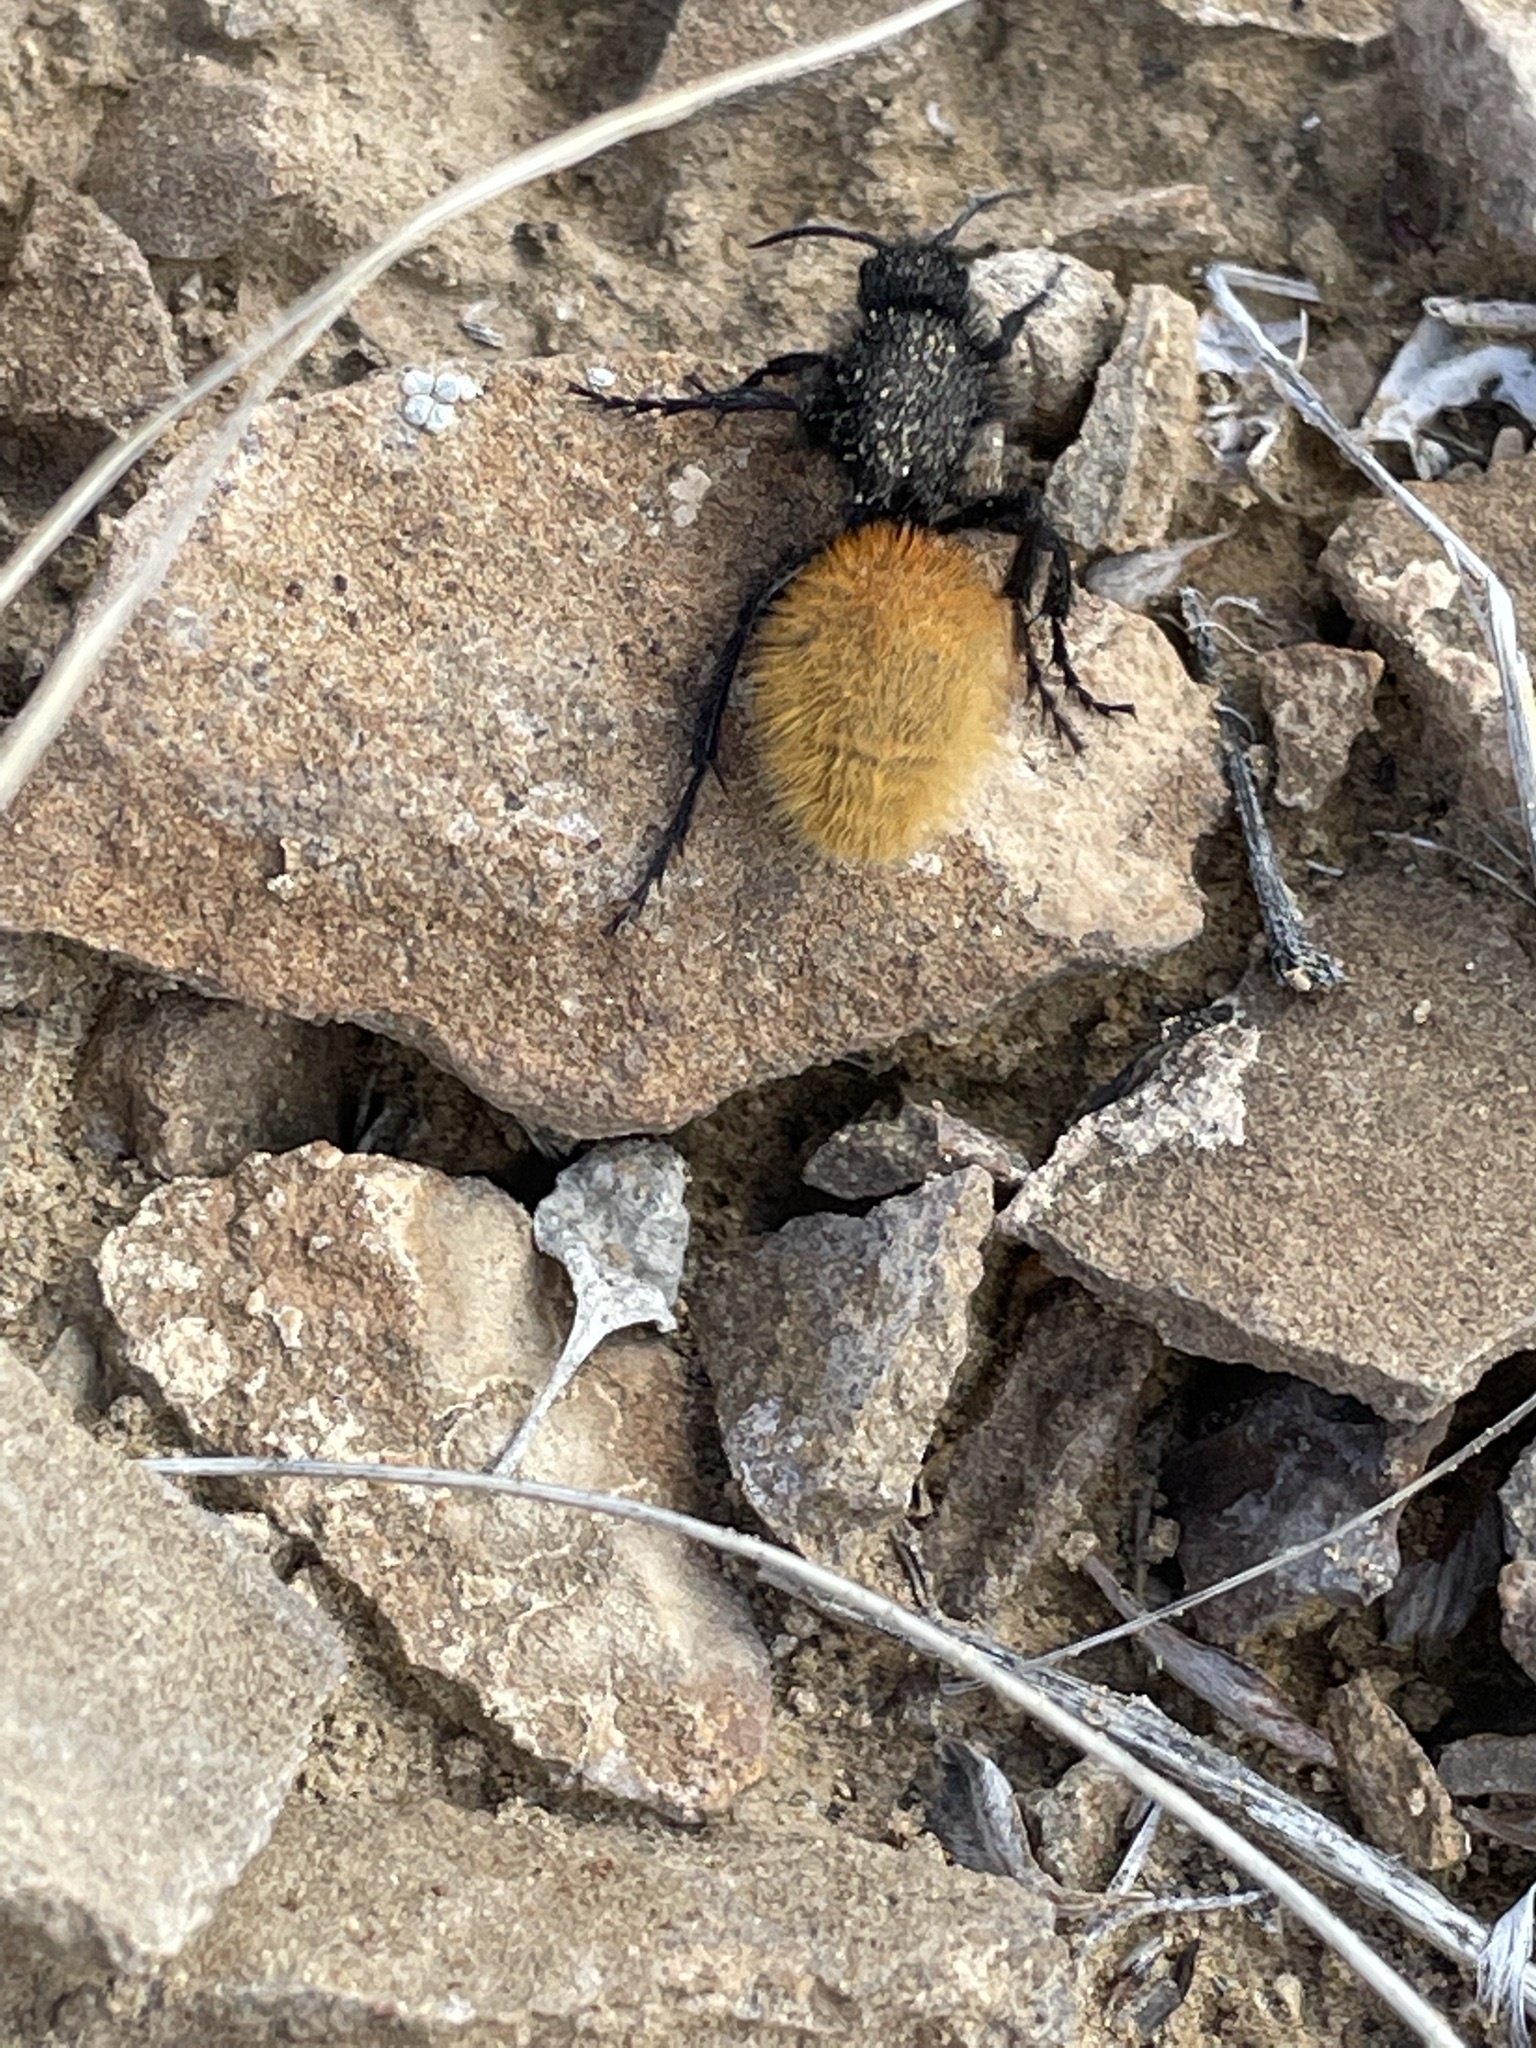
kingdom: Animalia
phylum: Arthropoda
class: Insecta
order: Hymenoptera
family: Mutillidae
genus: Dasymutilla
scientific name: Dasymutilla
